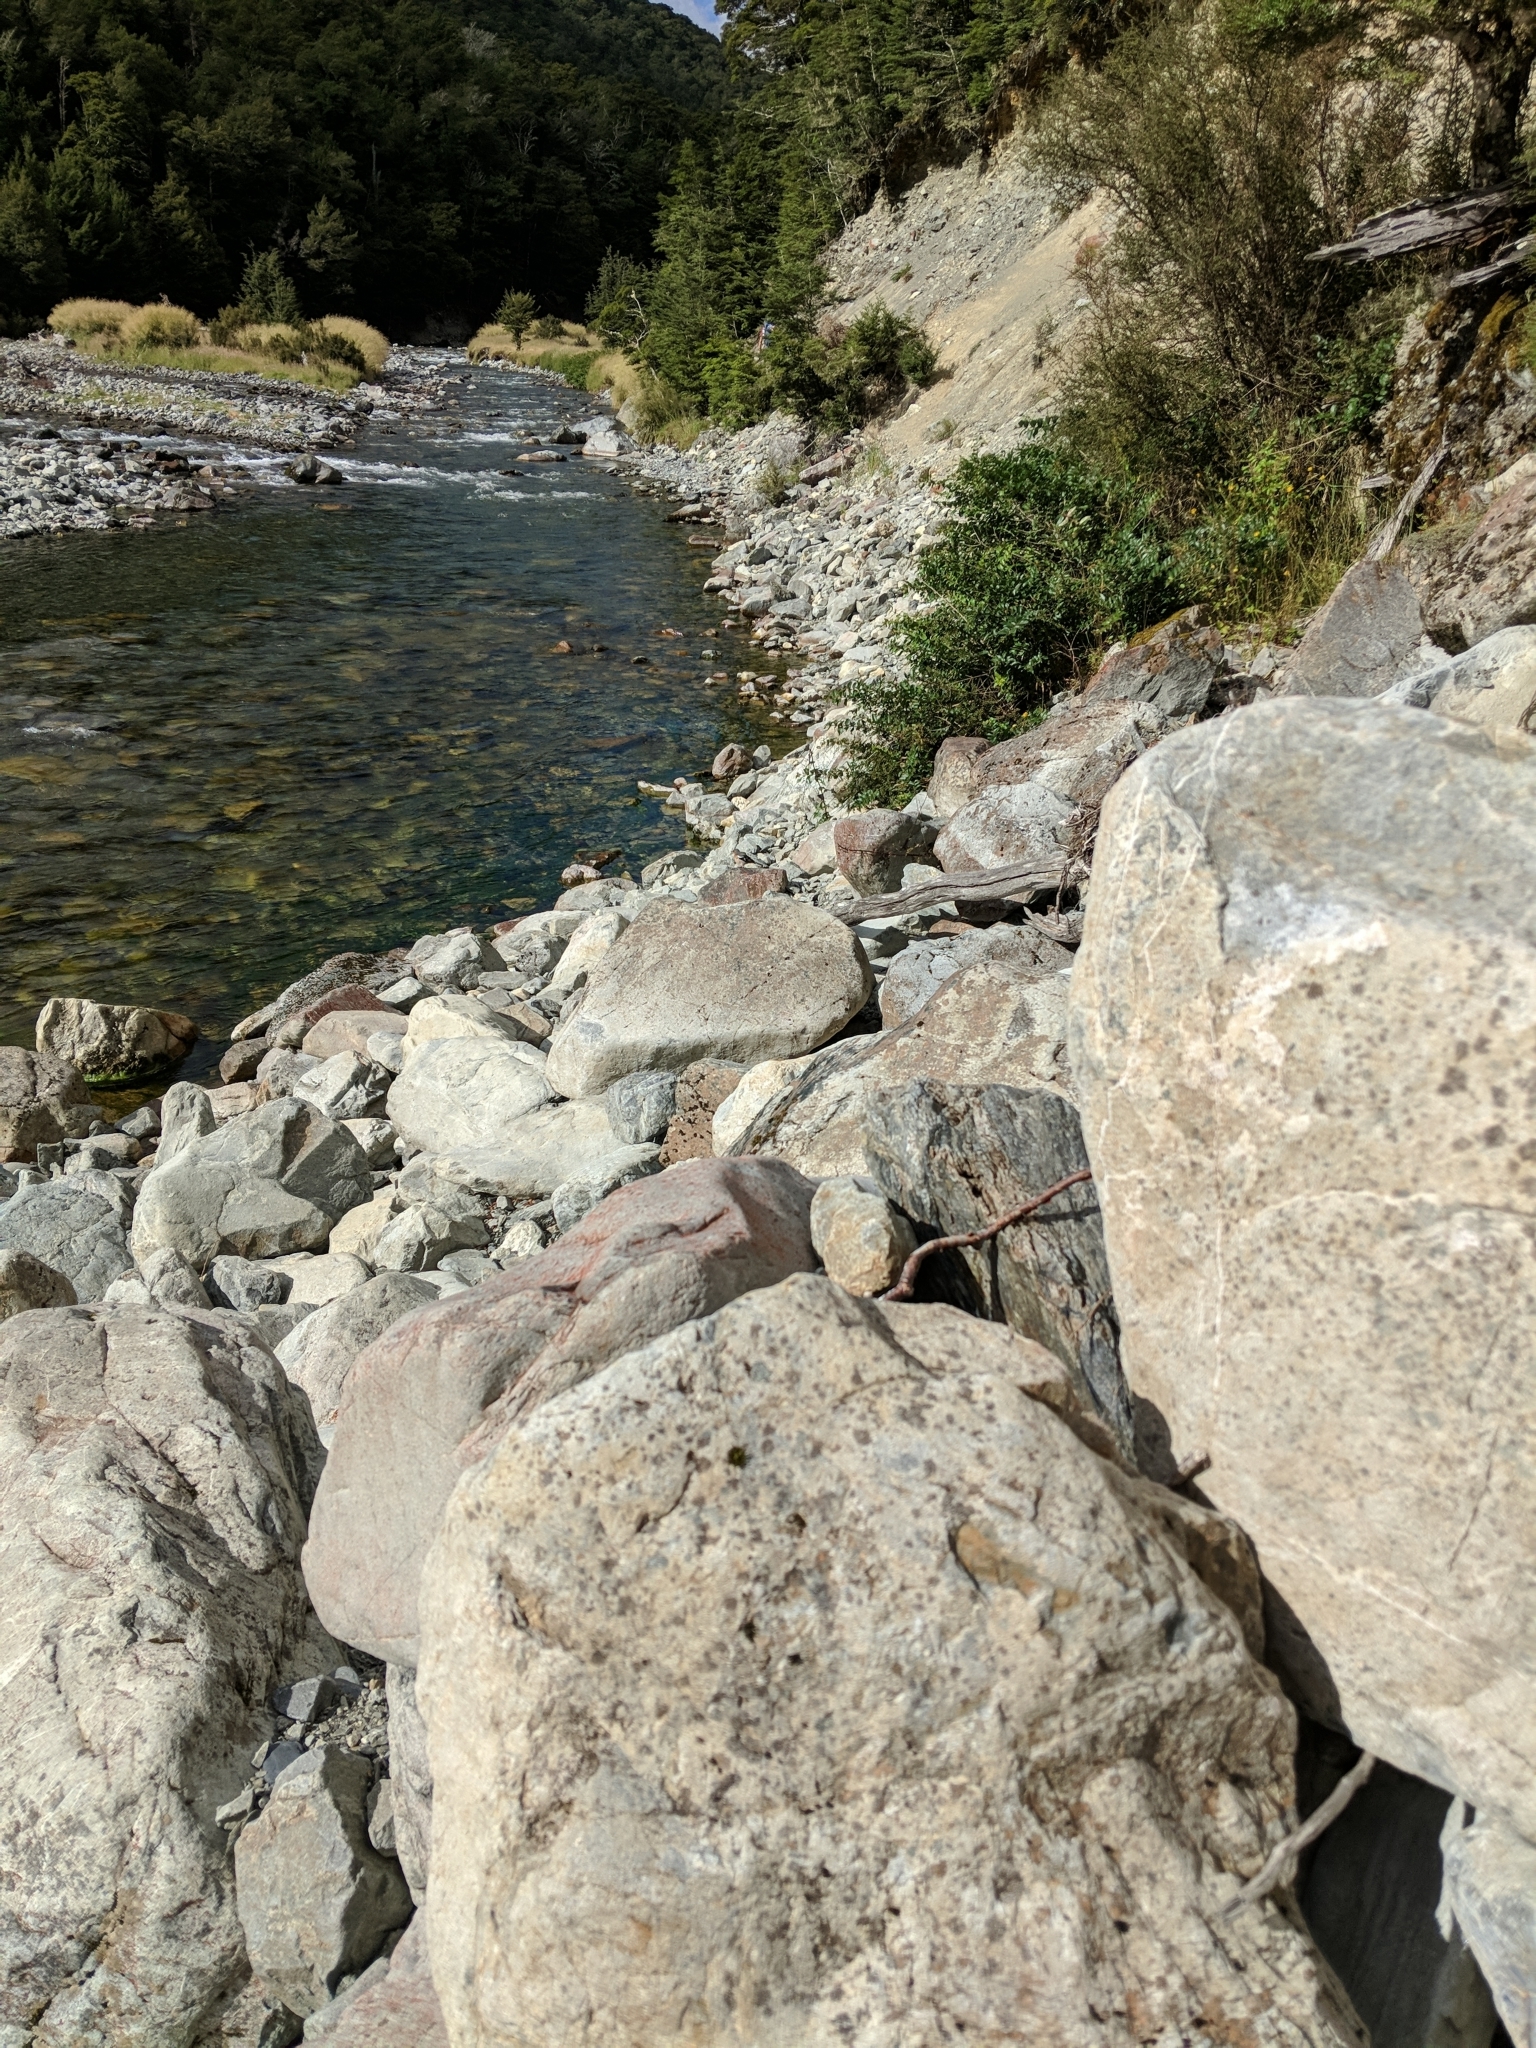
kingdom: Animalia
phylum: Chordata
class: Aves
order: Passeriformes
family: Fringillidae
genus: Fringilla
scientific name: Fringilla coelebs
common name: Common chaffinch
